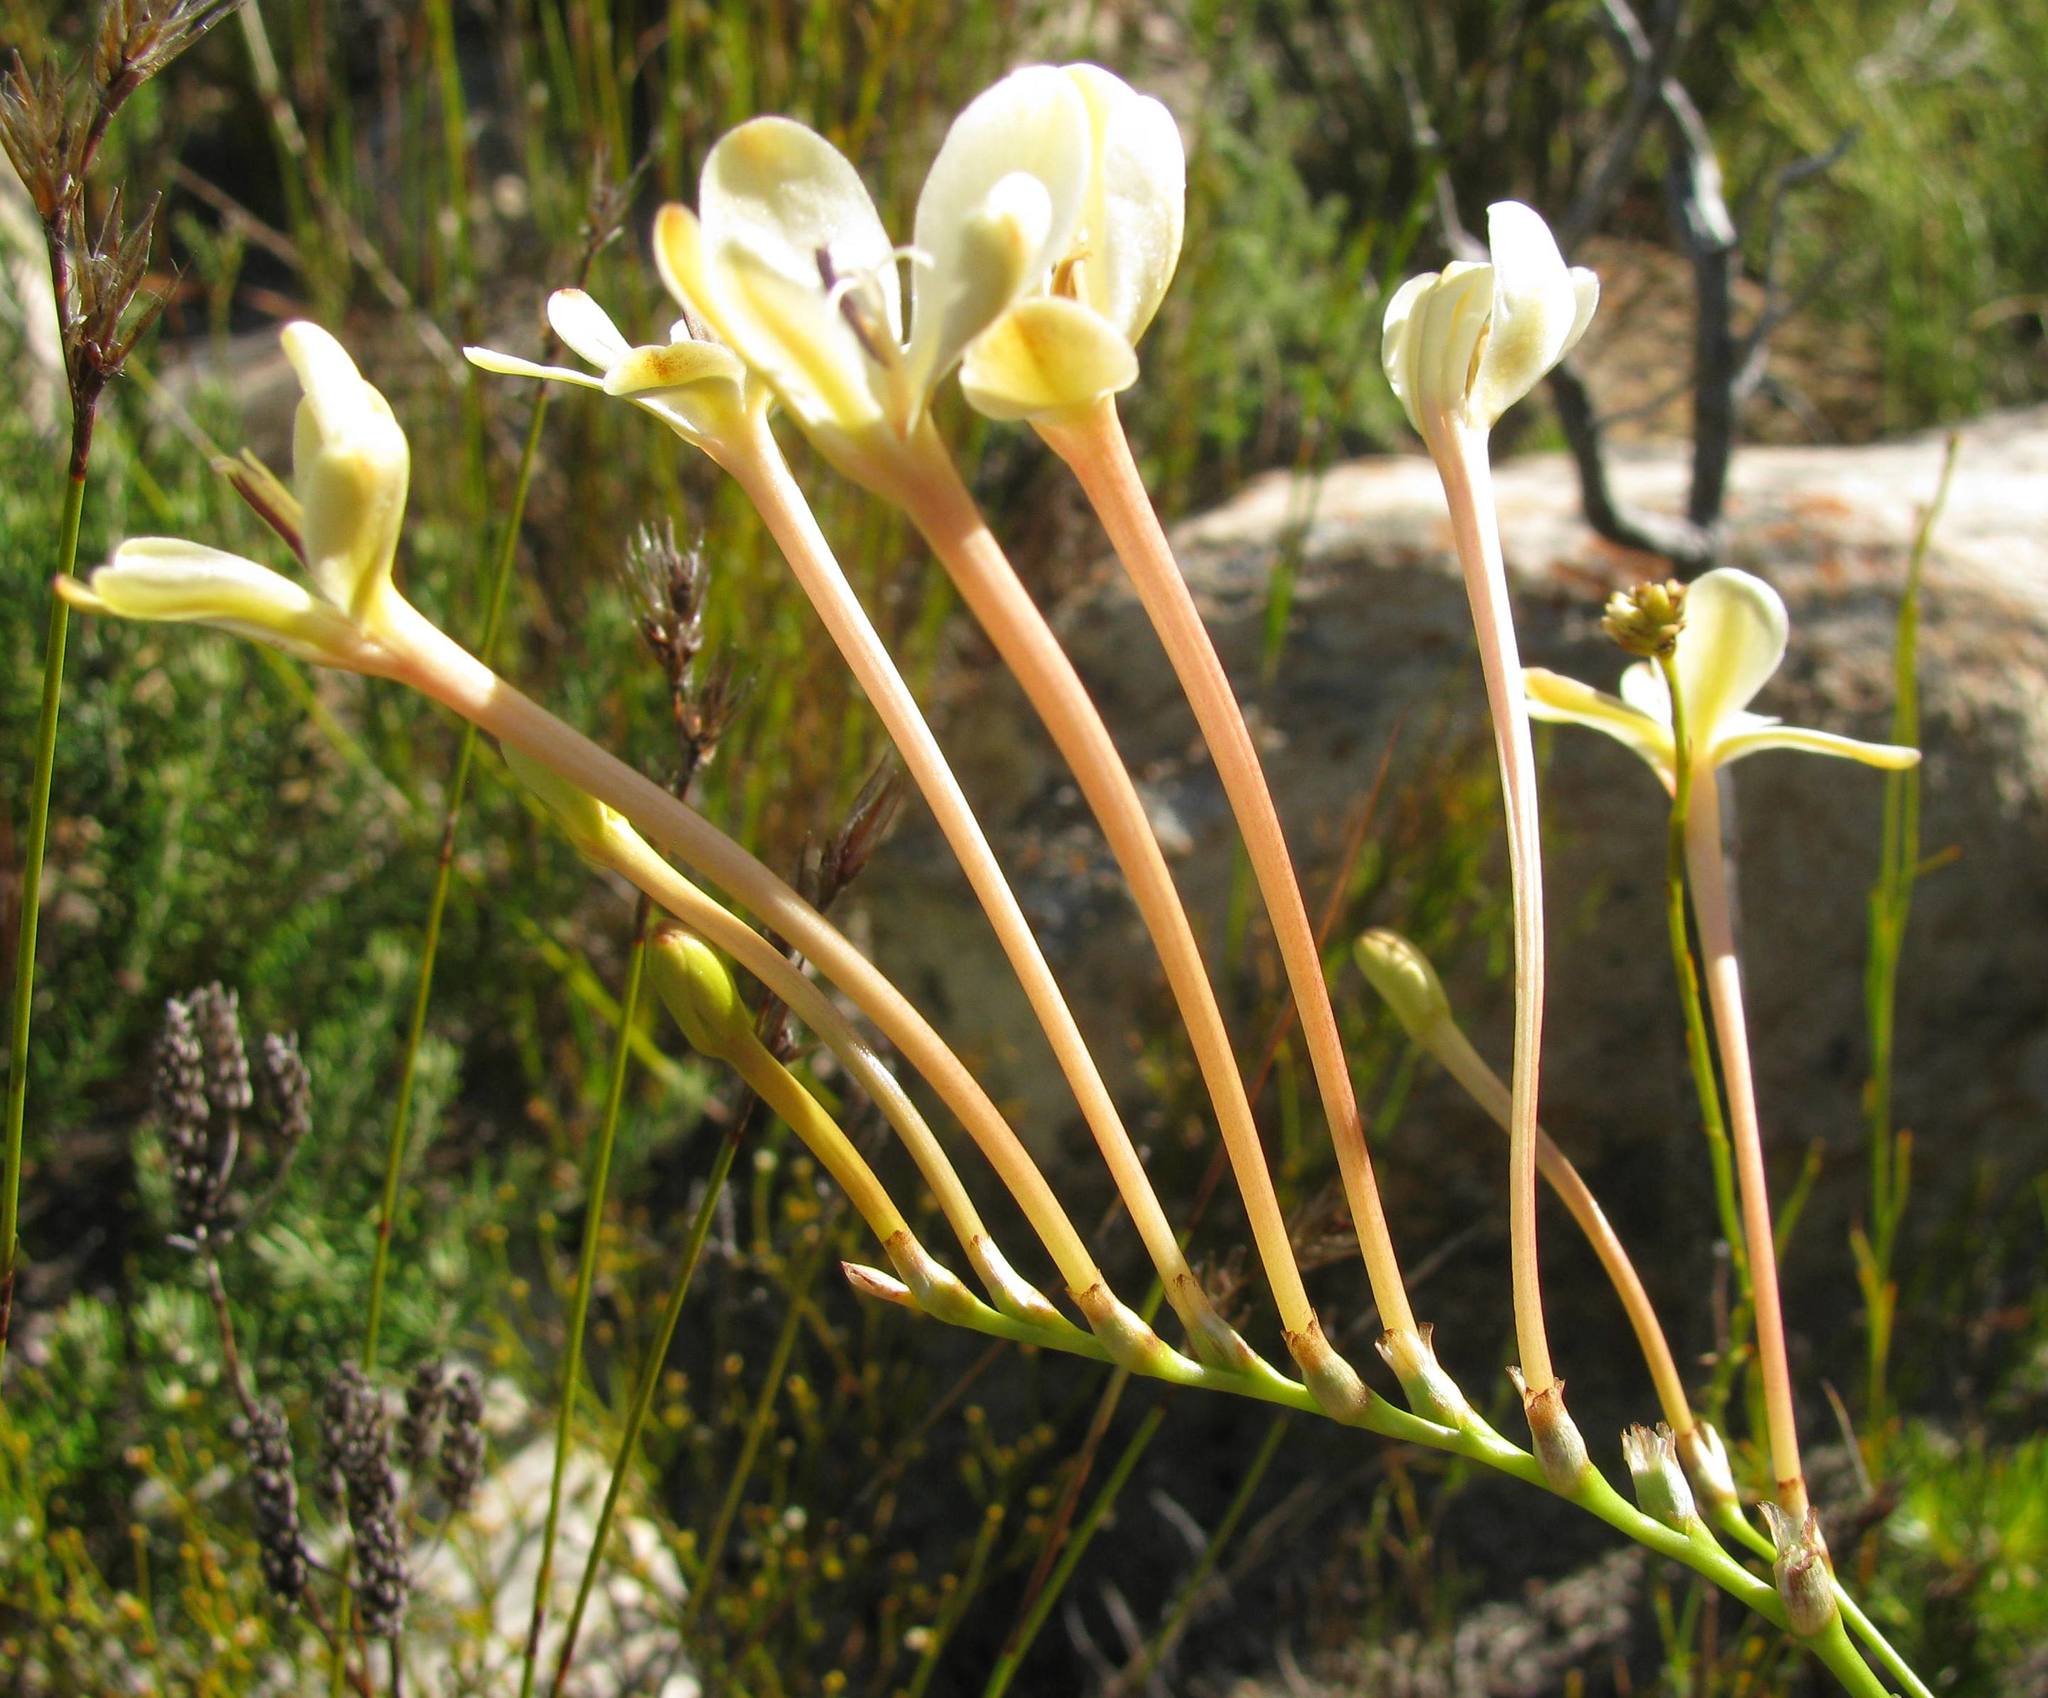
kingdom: Plantae
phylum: Tracheophyta
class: Liliopsida
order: Asparagales
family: Iridaceae
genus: Tritonia
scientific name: Tritonia cooperi
